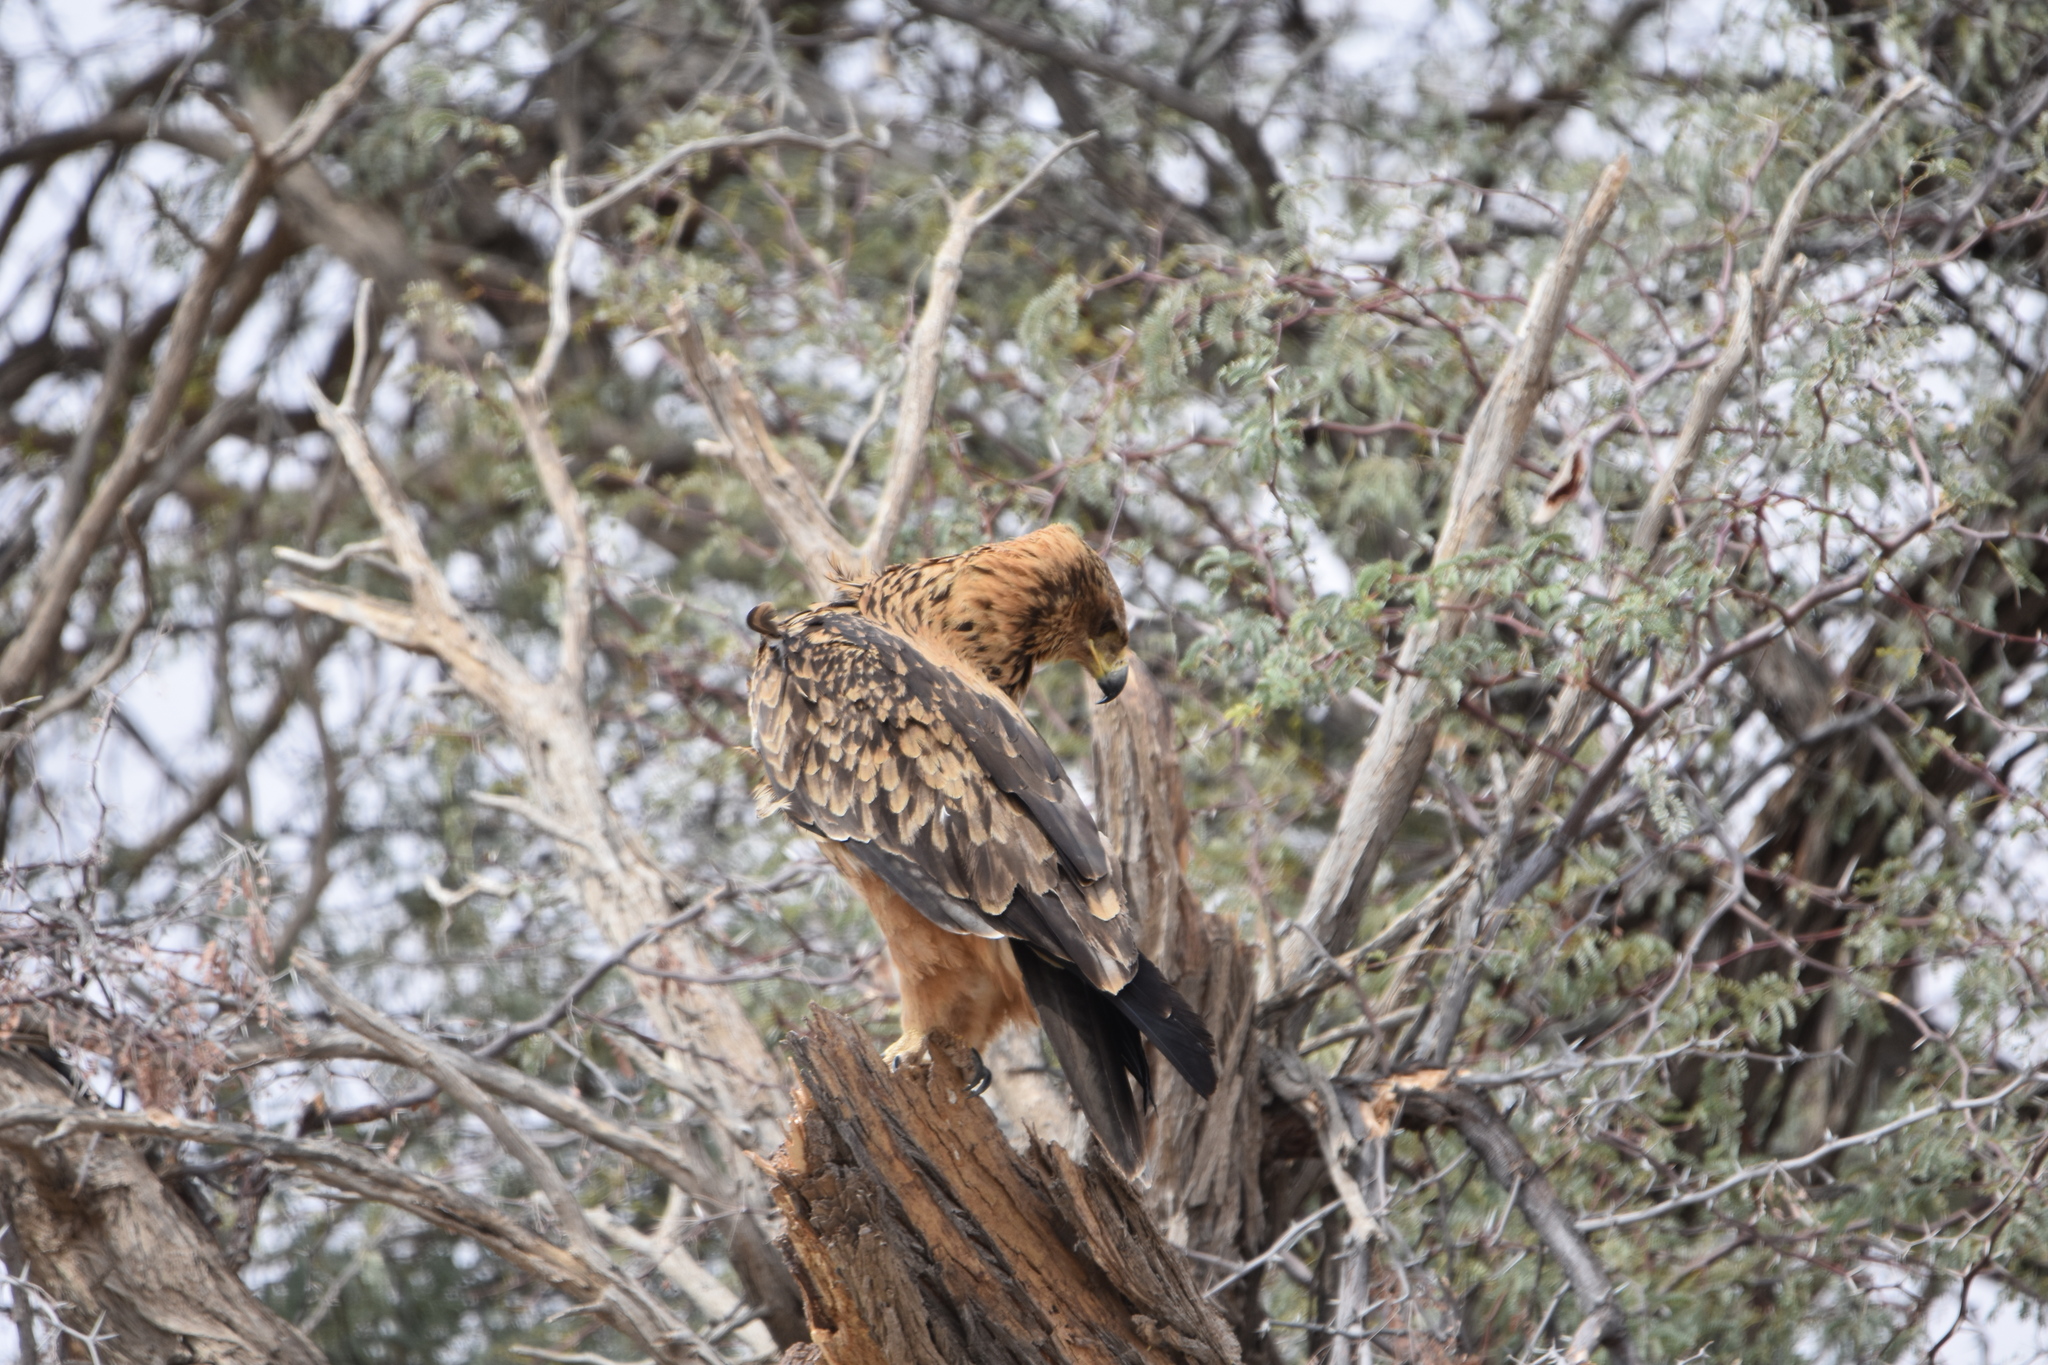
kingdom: Animalia
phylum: Chordata
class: Aves
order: Accipitriformes
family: Accipitridae
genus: Aquila
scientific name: Aquila rapax
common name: Tawny eagle
